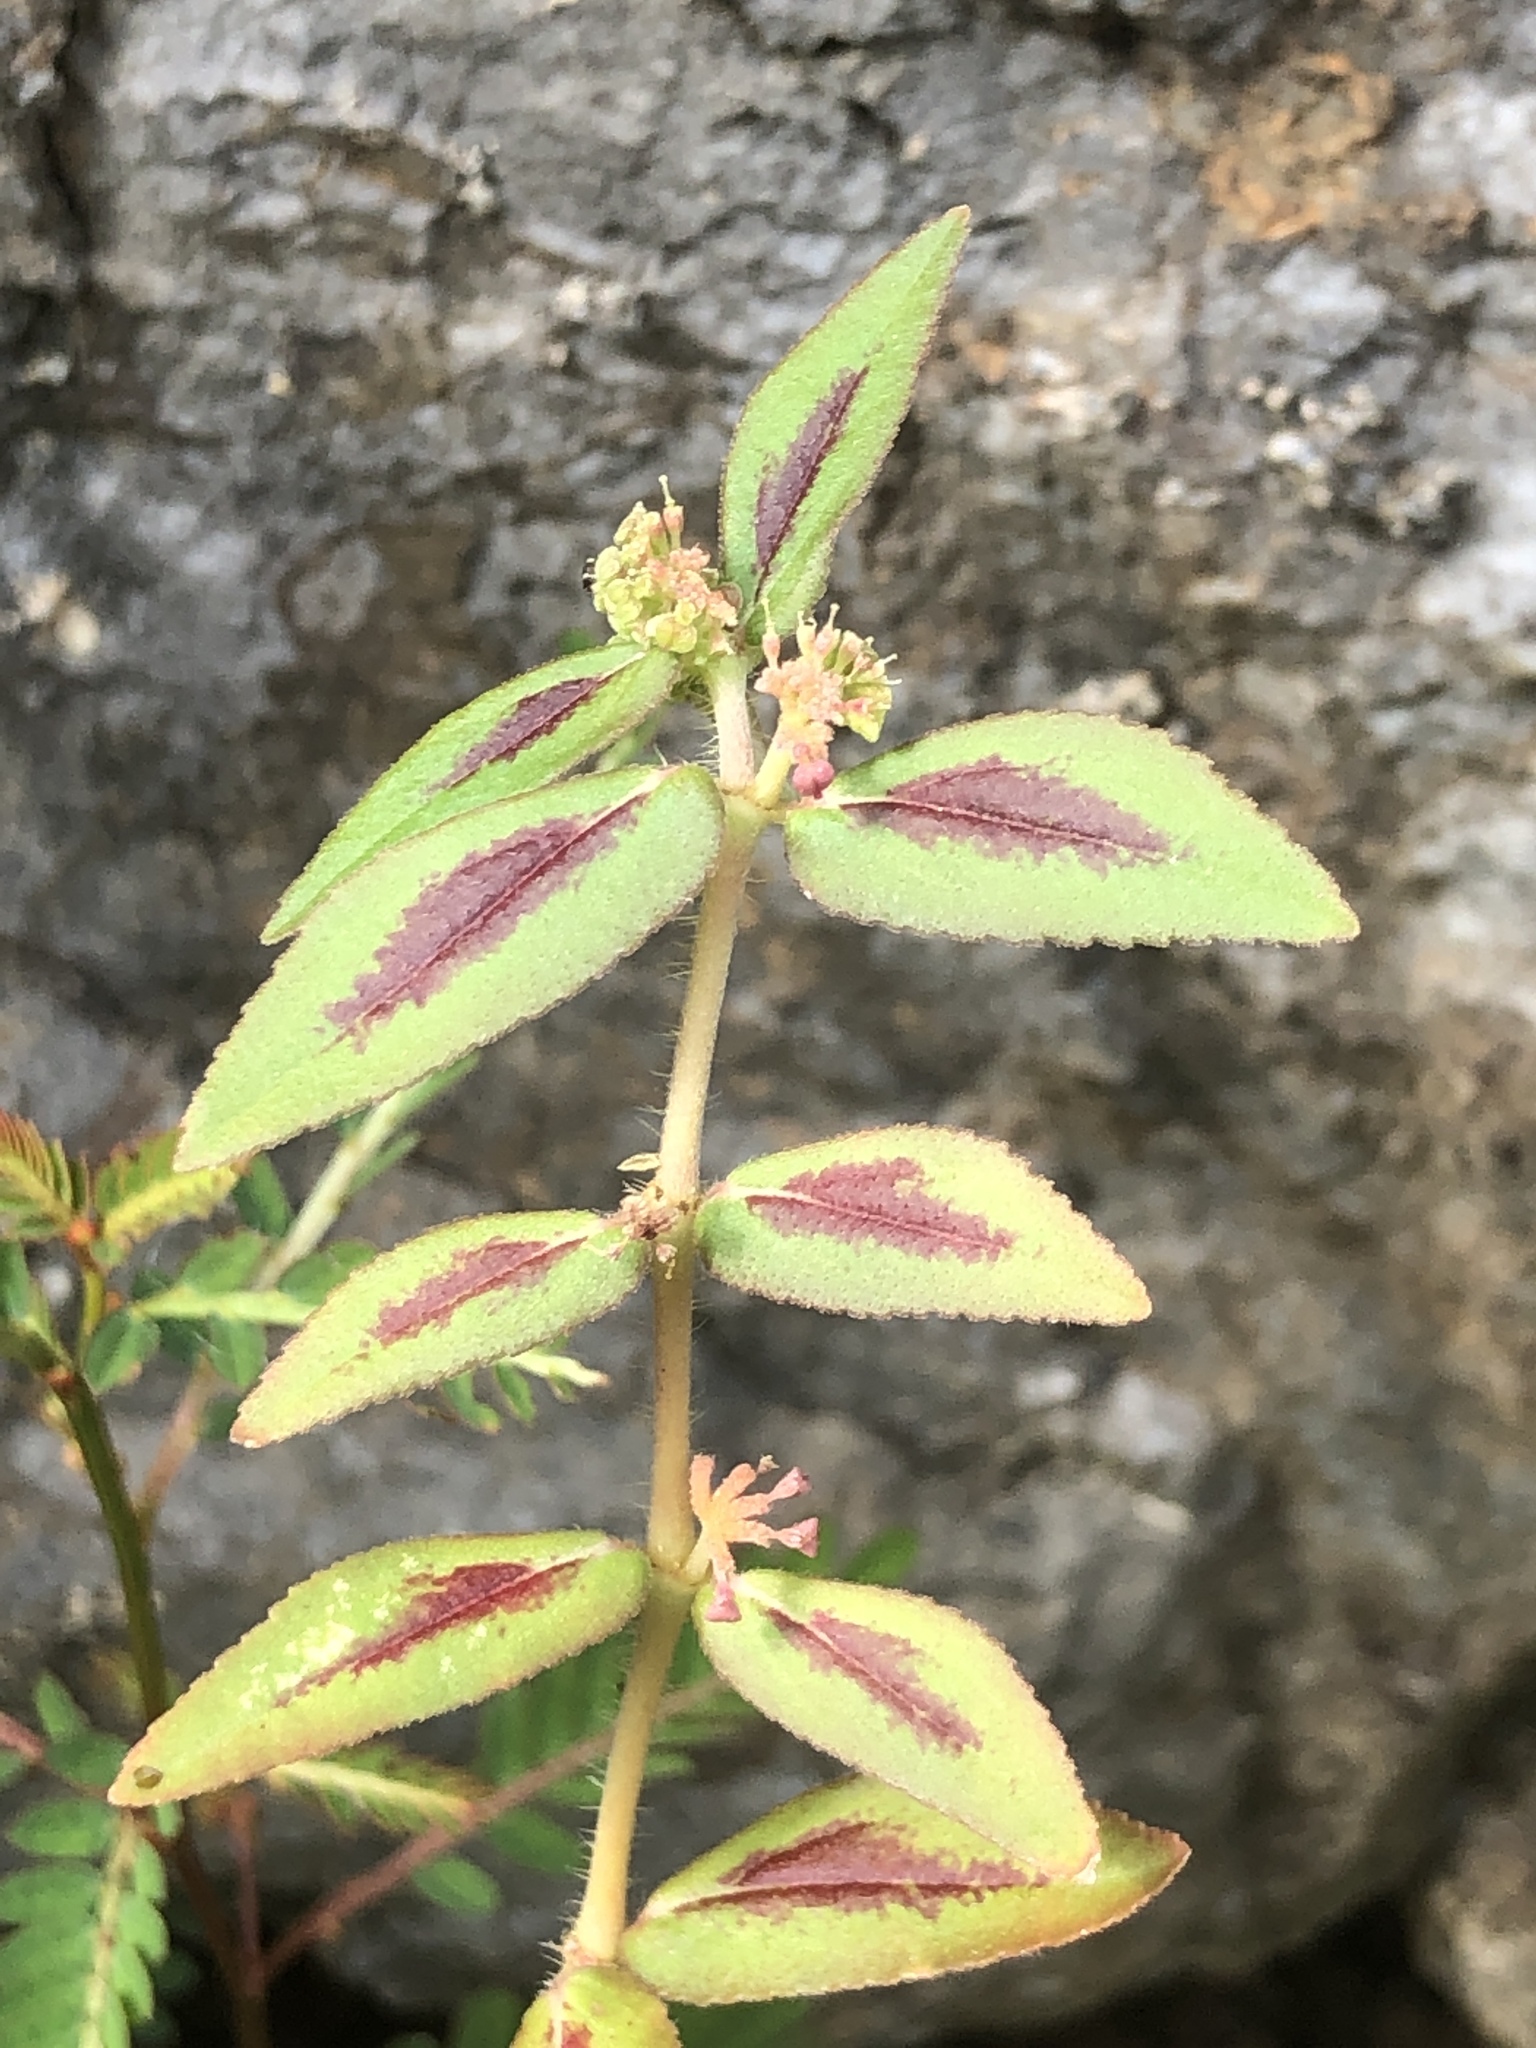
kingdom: Plantae
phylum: Tracheophyta
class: Magnoliopsida
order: Malpighiales
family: Euphorbiaceae
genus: Euphorbia
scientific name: Euphorbia hirta
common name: Pillpod sandmat
